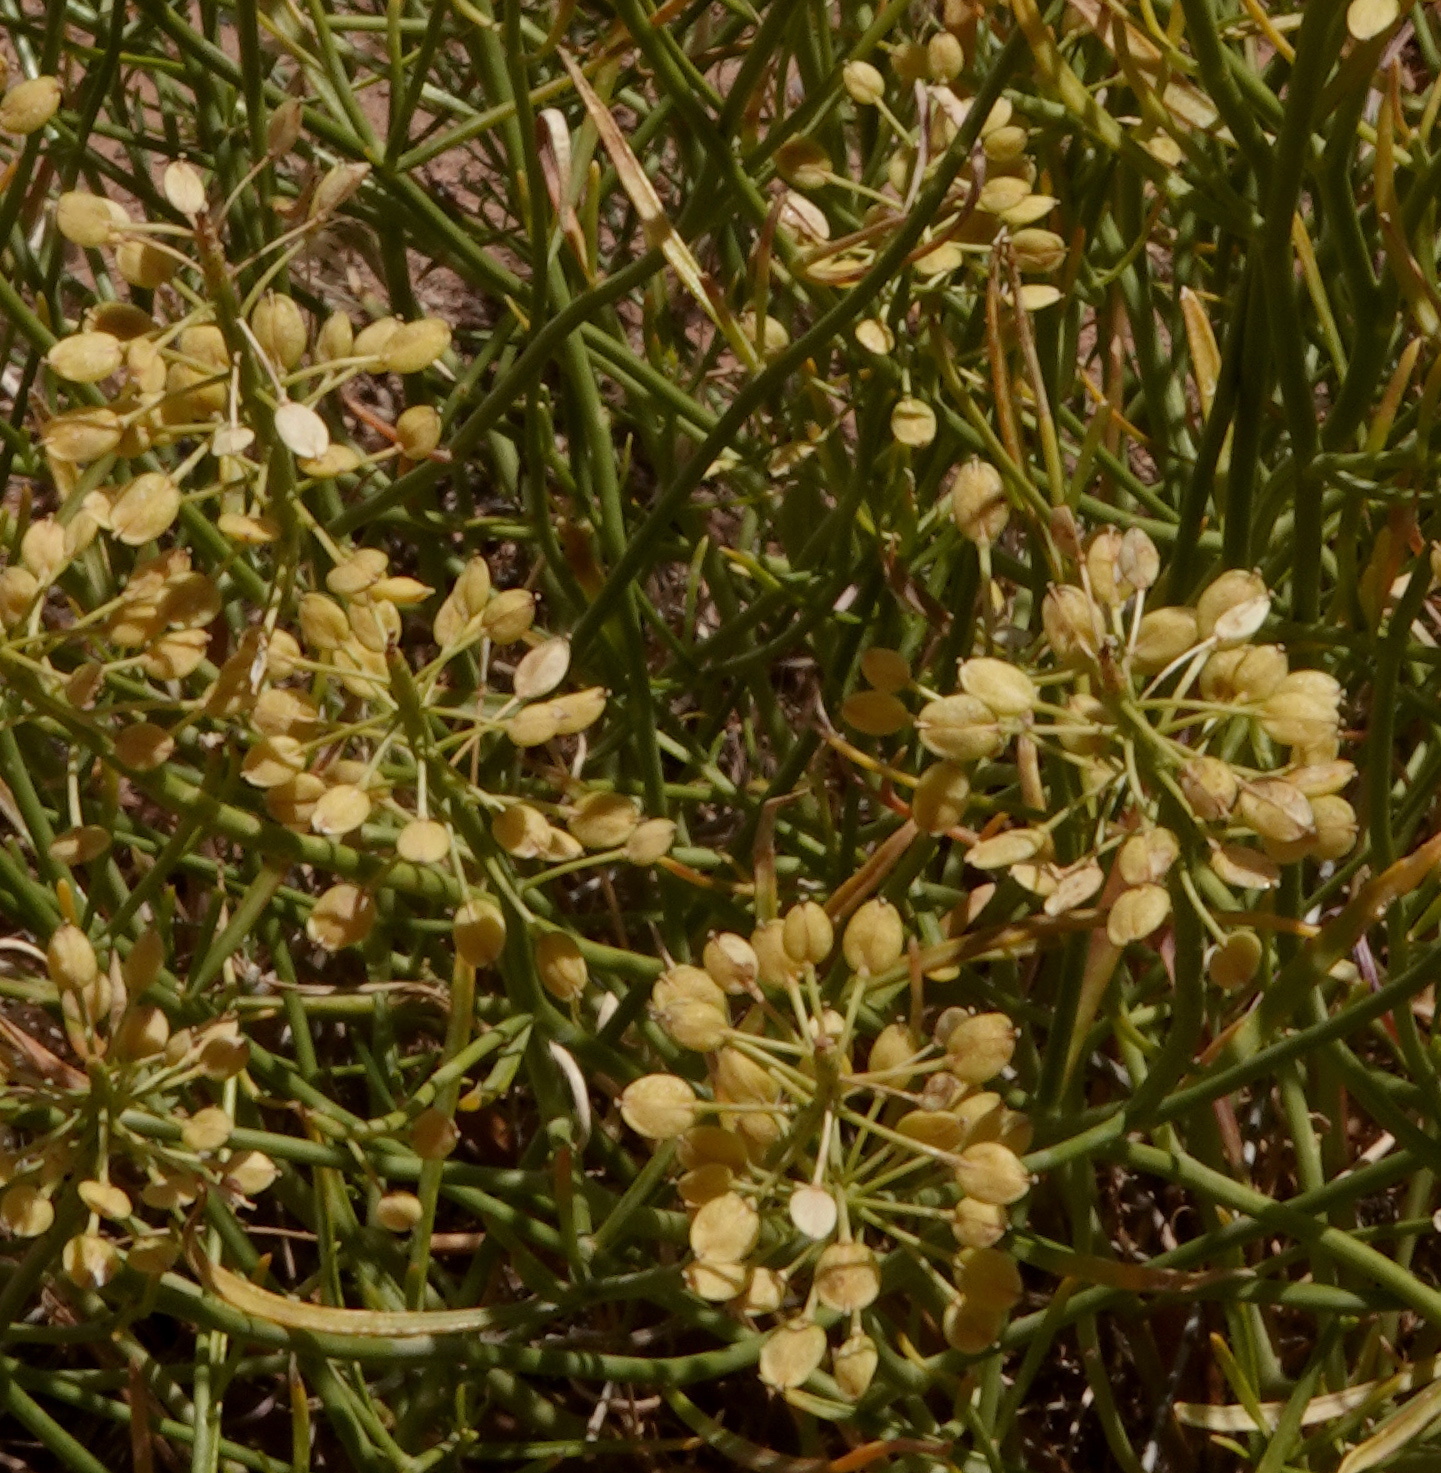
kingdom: Plantae
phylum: Tracheophyta
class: Magnoliopsida
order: Brassicales
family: Brassicaceae
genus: Lepidium
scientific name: Lepidium fremontii
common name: Fremont's pepperwort
